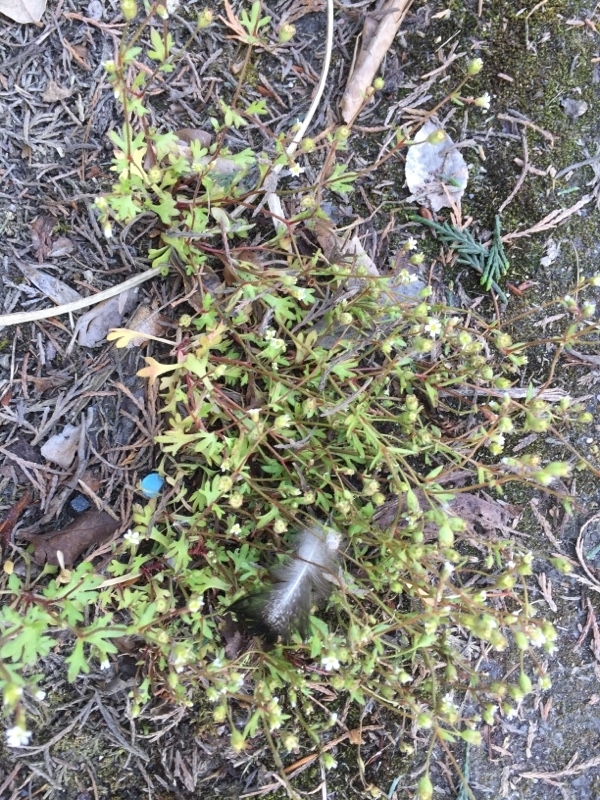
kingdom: Plantae
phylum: Tracheophyta
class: Magnoliopsida
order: Saxifragales
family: Saxifragaceae
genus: Saxifraga
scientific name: Saxifraga tridactylites
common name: Rue-leaved saxifrage
